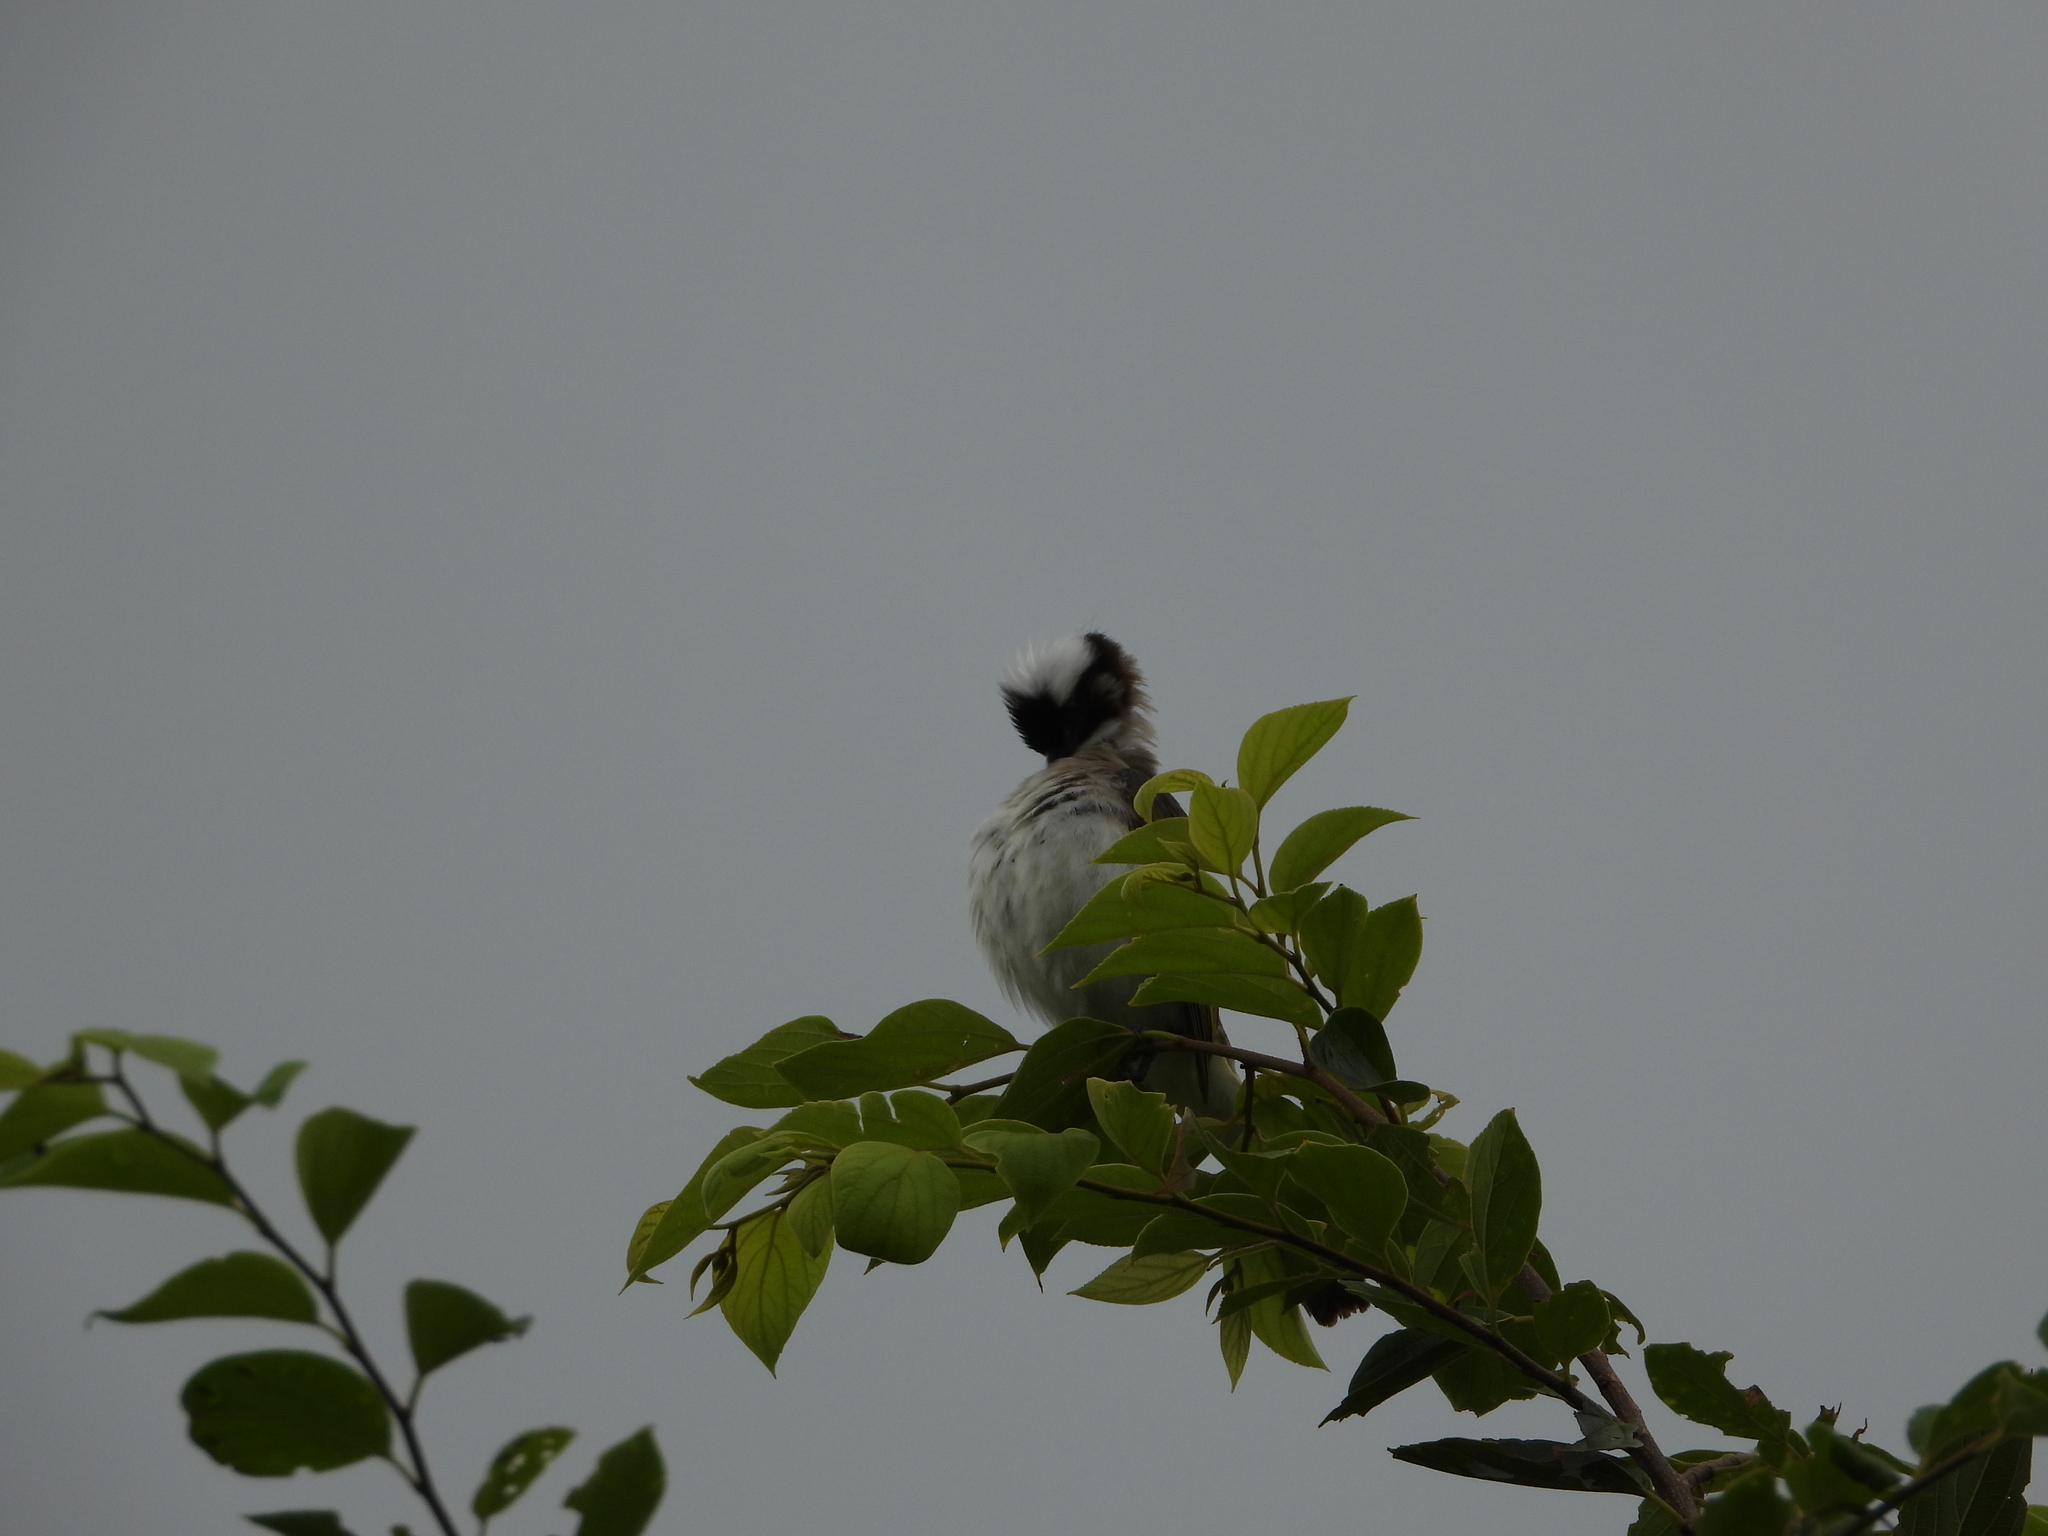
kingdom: Animalia
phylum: Chordata
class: Aves
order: Passeriformes
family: Pycnonotidae
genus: Pycnonotus
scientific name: Pycnonotus sinensis
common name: Light-vented bulbul
